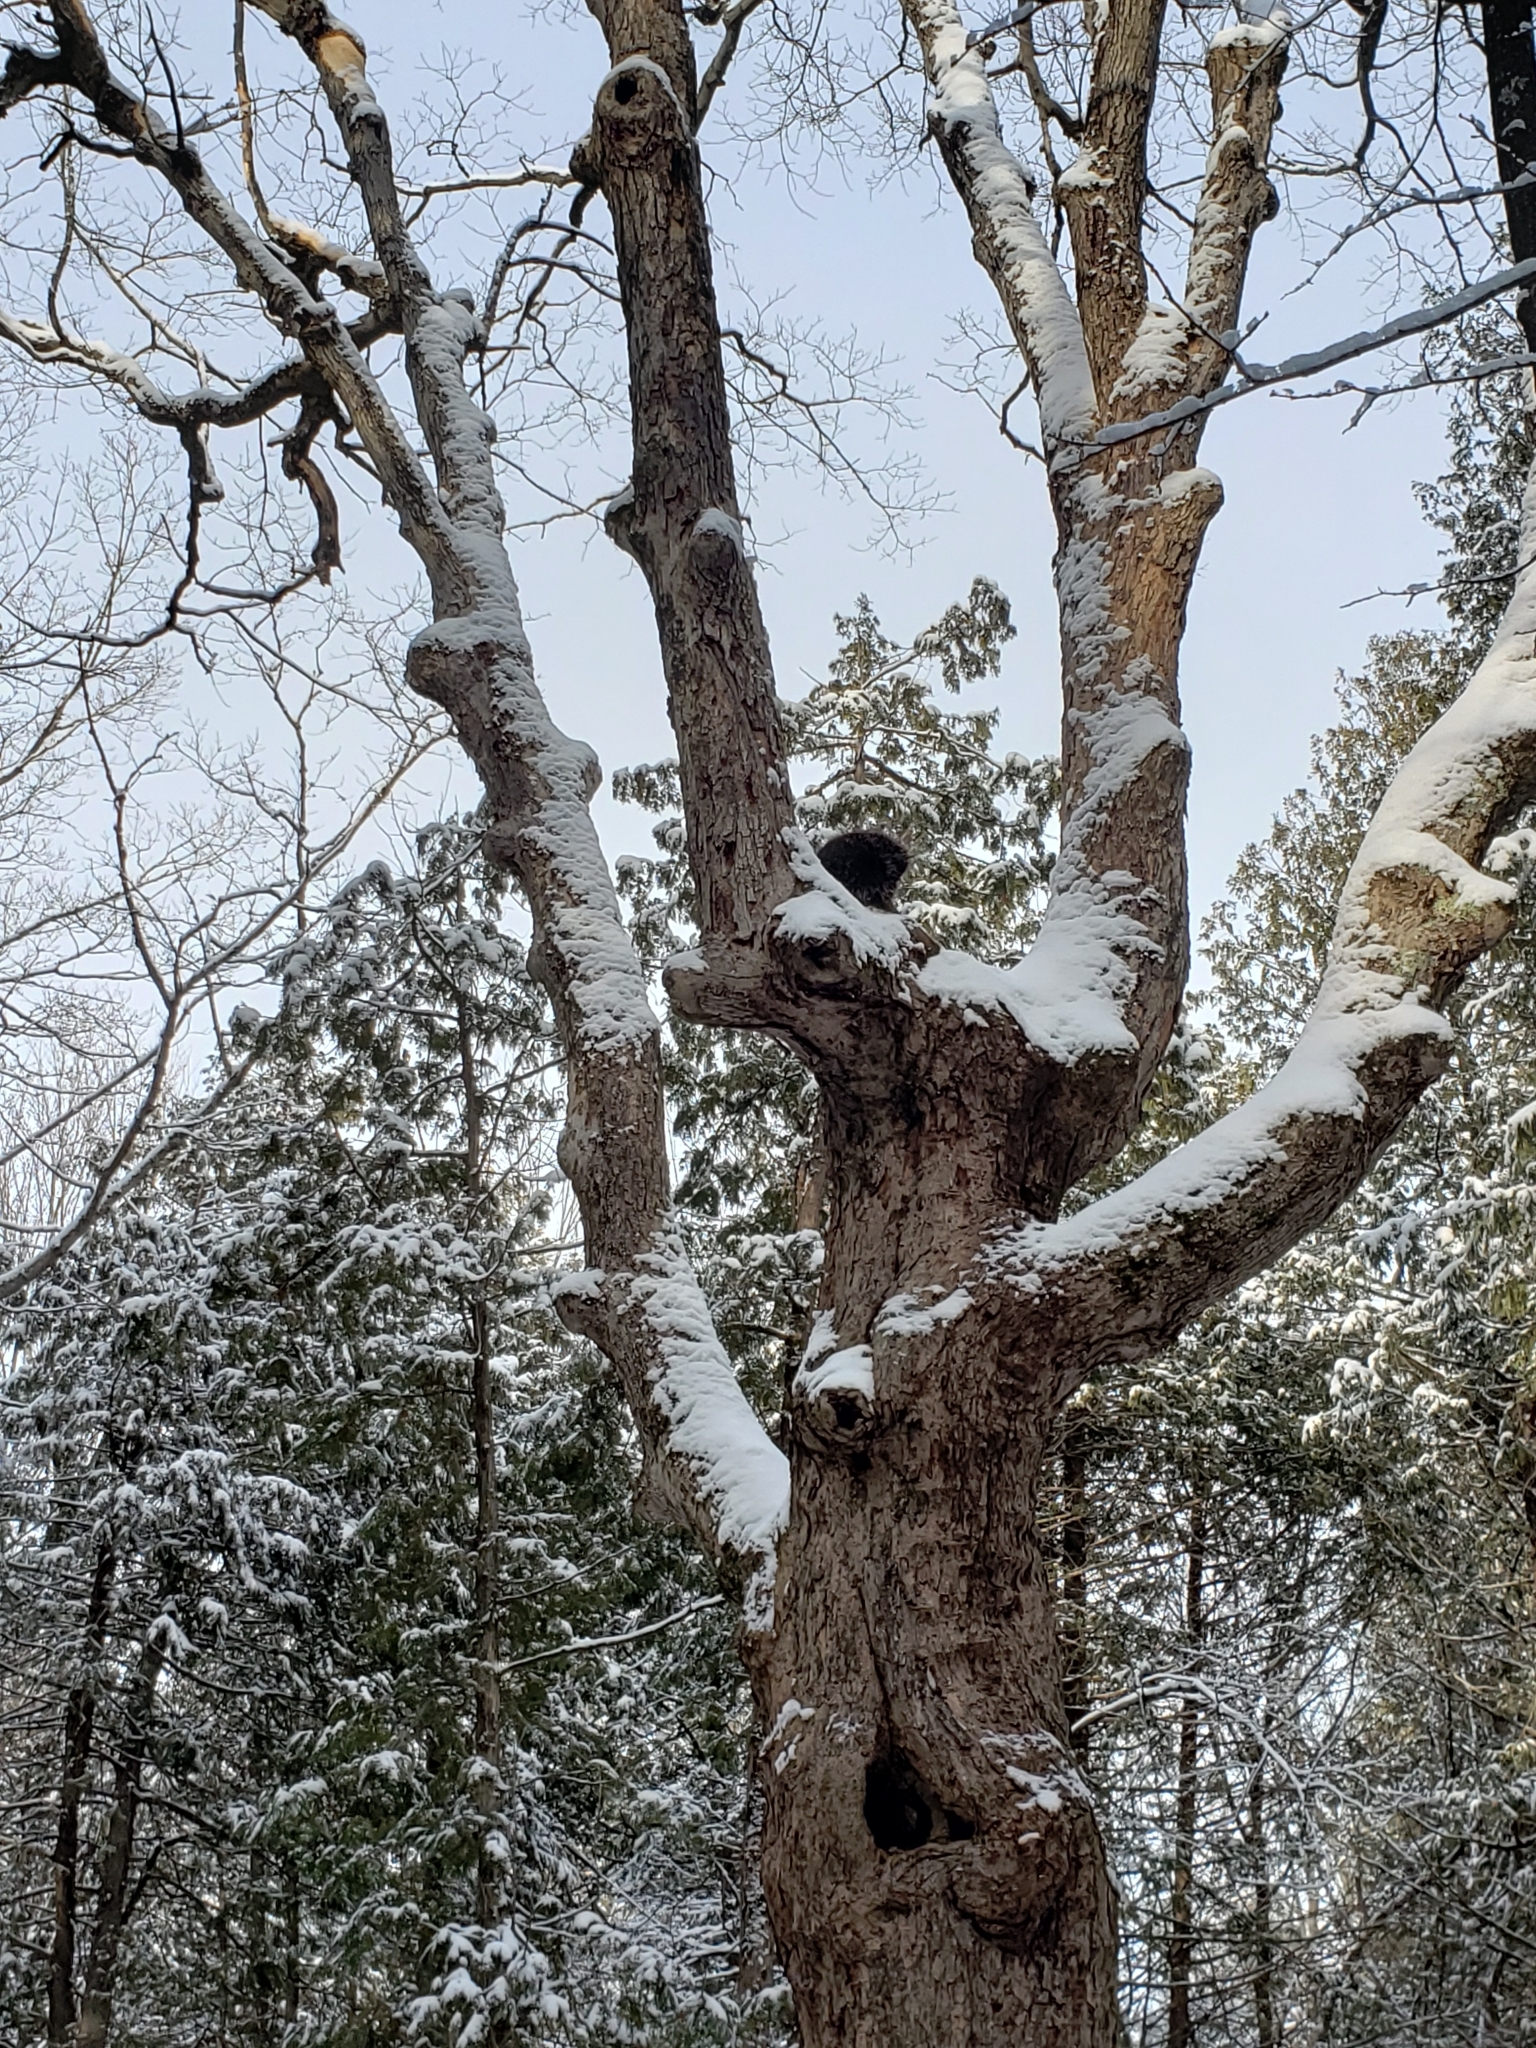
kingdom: Animalia
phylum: Chordata
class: Mammalia
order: Rodentia
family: Erethizontidae
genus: Erethizon
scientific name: Erethizon dorsatus
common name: North american porcupine
